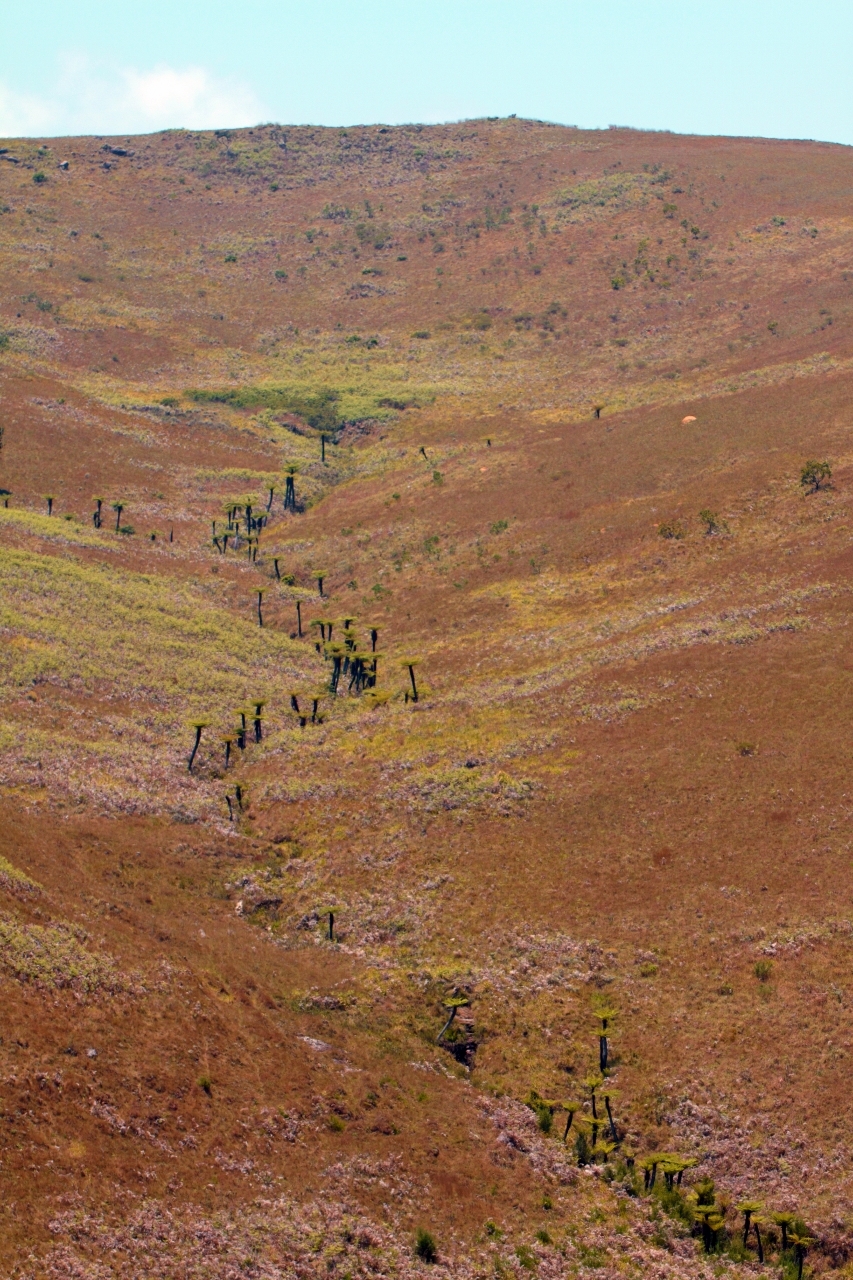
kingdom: Plantae
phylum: Tracheophyta
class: Polypodiopsida
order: Cyatheales
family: Cyatheaceae
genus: Alsophila
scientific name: Alsophila dregei
